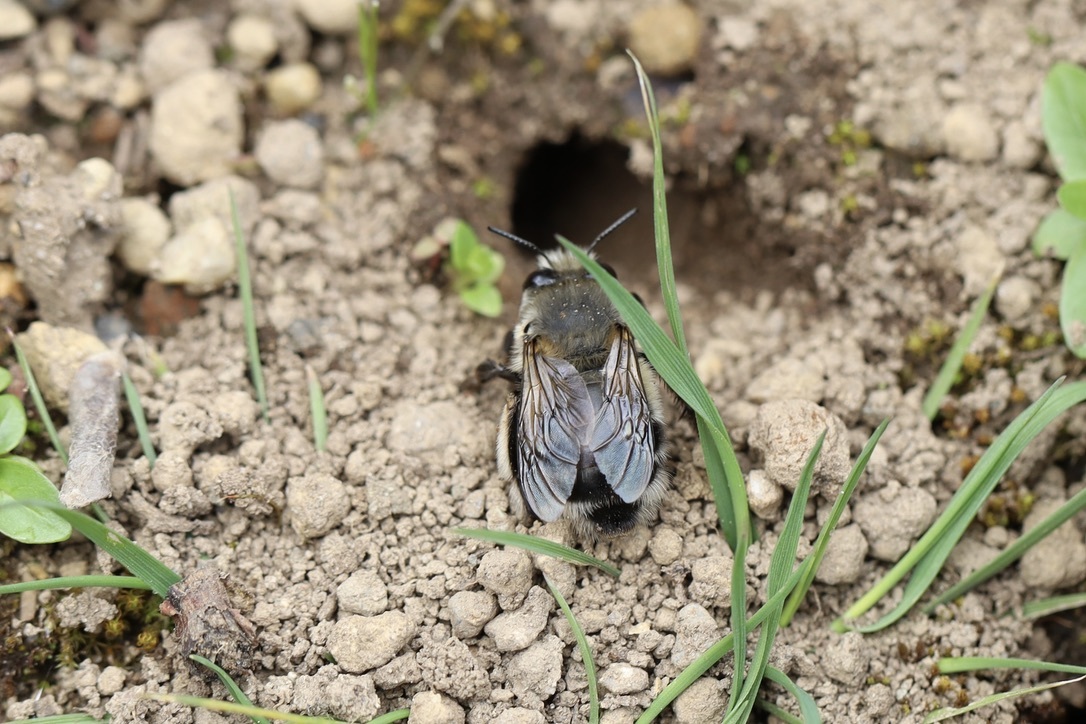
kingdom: Animalia
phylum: Arthropoda
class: Insecta
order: Hymenoptera
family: Apidae
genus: Anthophora
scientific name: Anthophora pacifica
